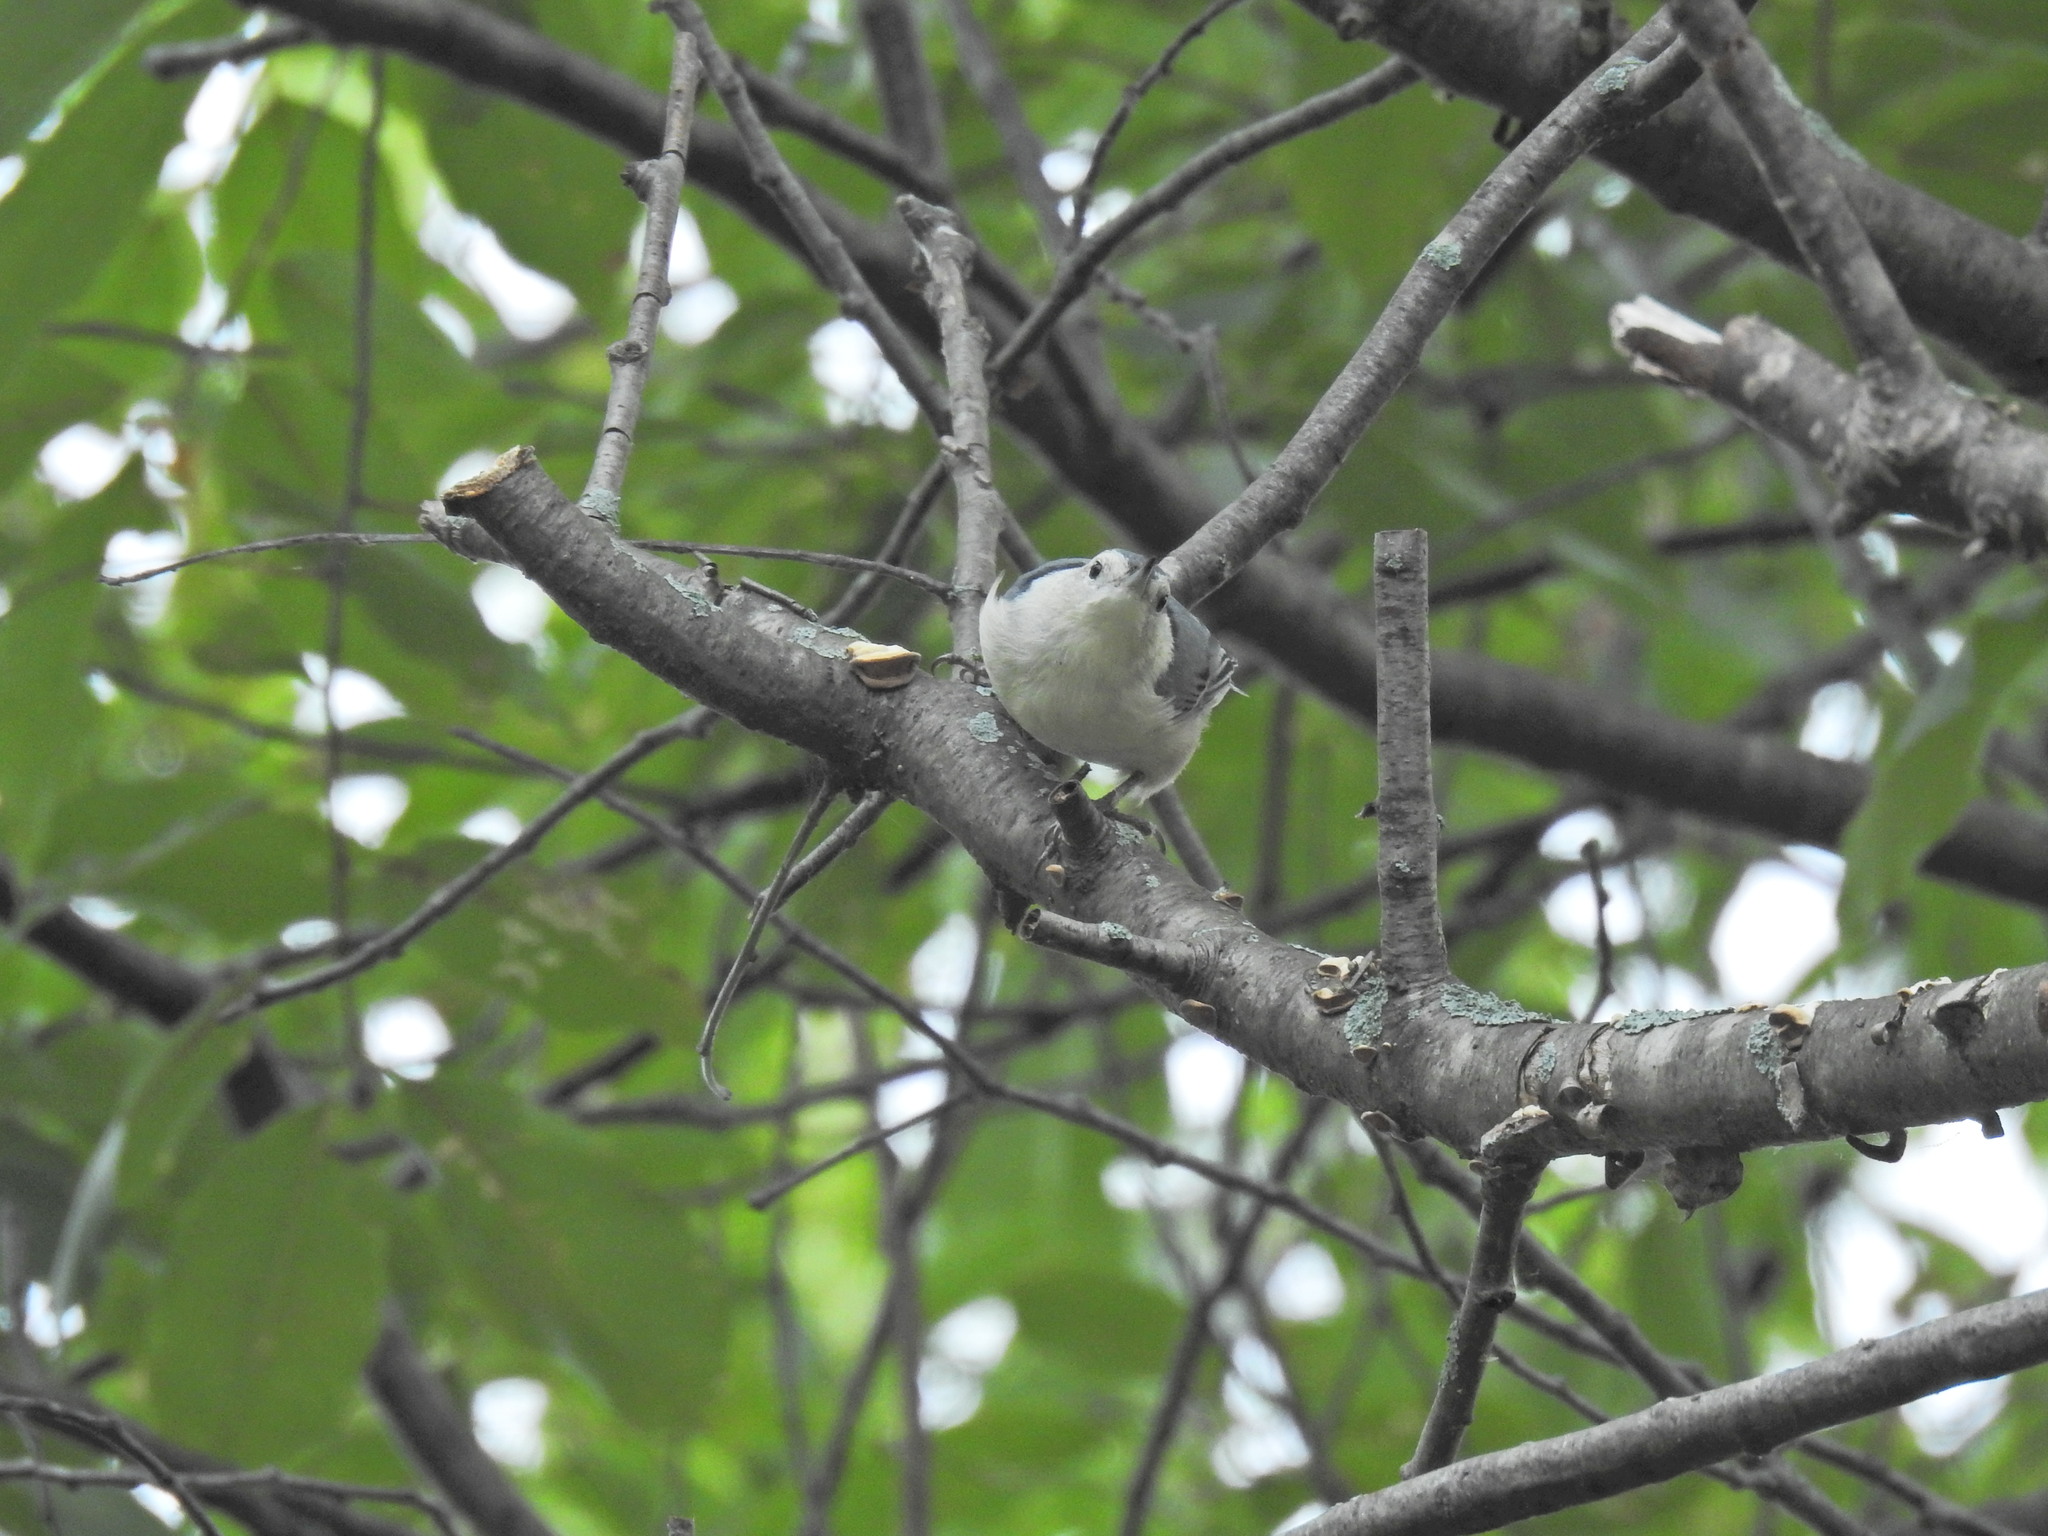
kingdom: Animalia
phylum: Chordata
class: Aves
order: Passeriformes
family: Sittidae
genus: Sitta
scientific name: Sitta carolinensis
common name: White-breasted nuthatch
